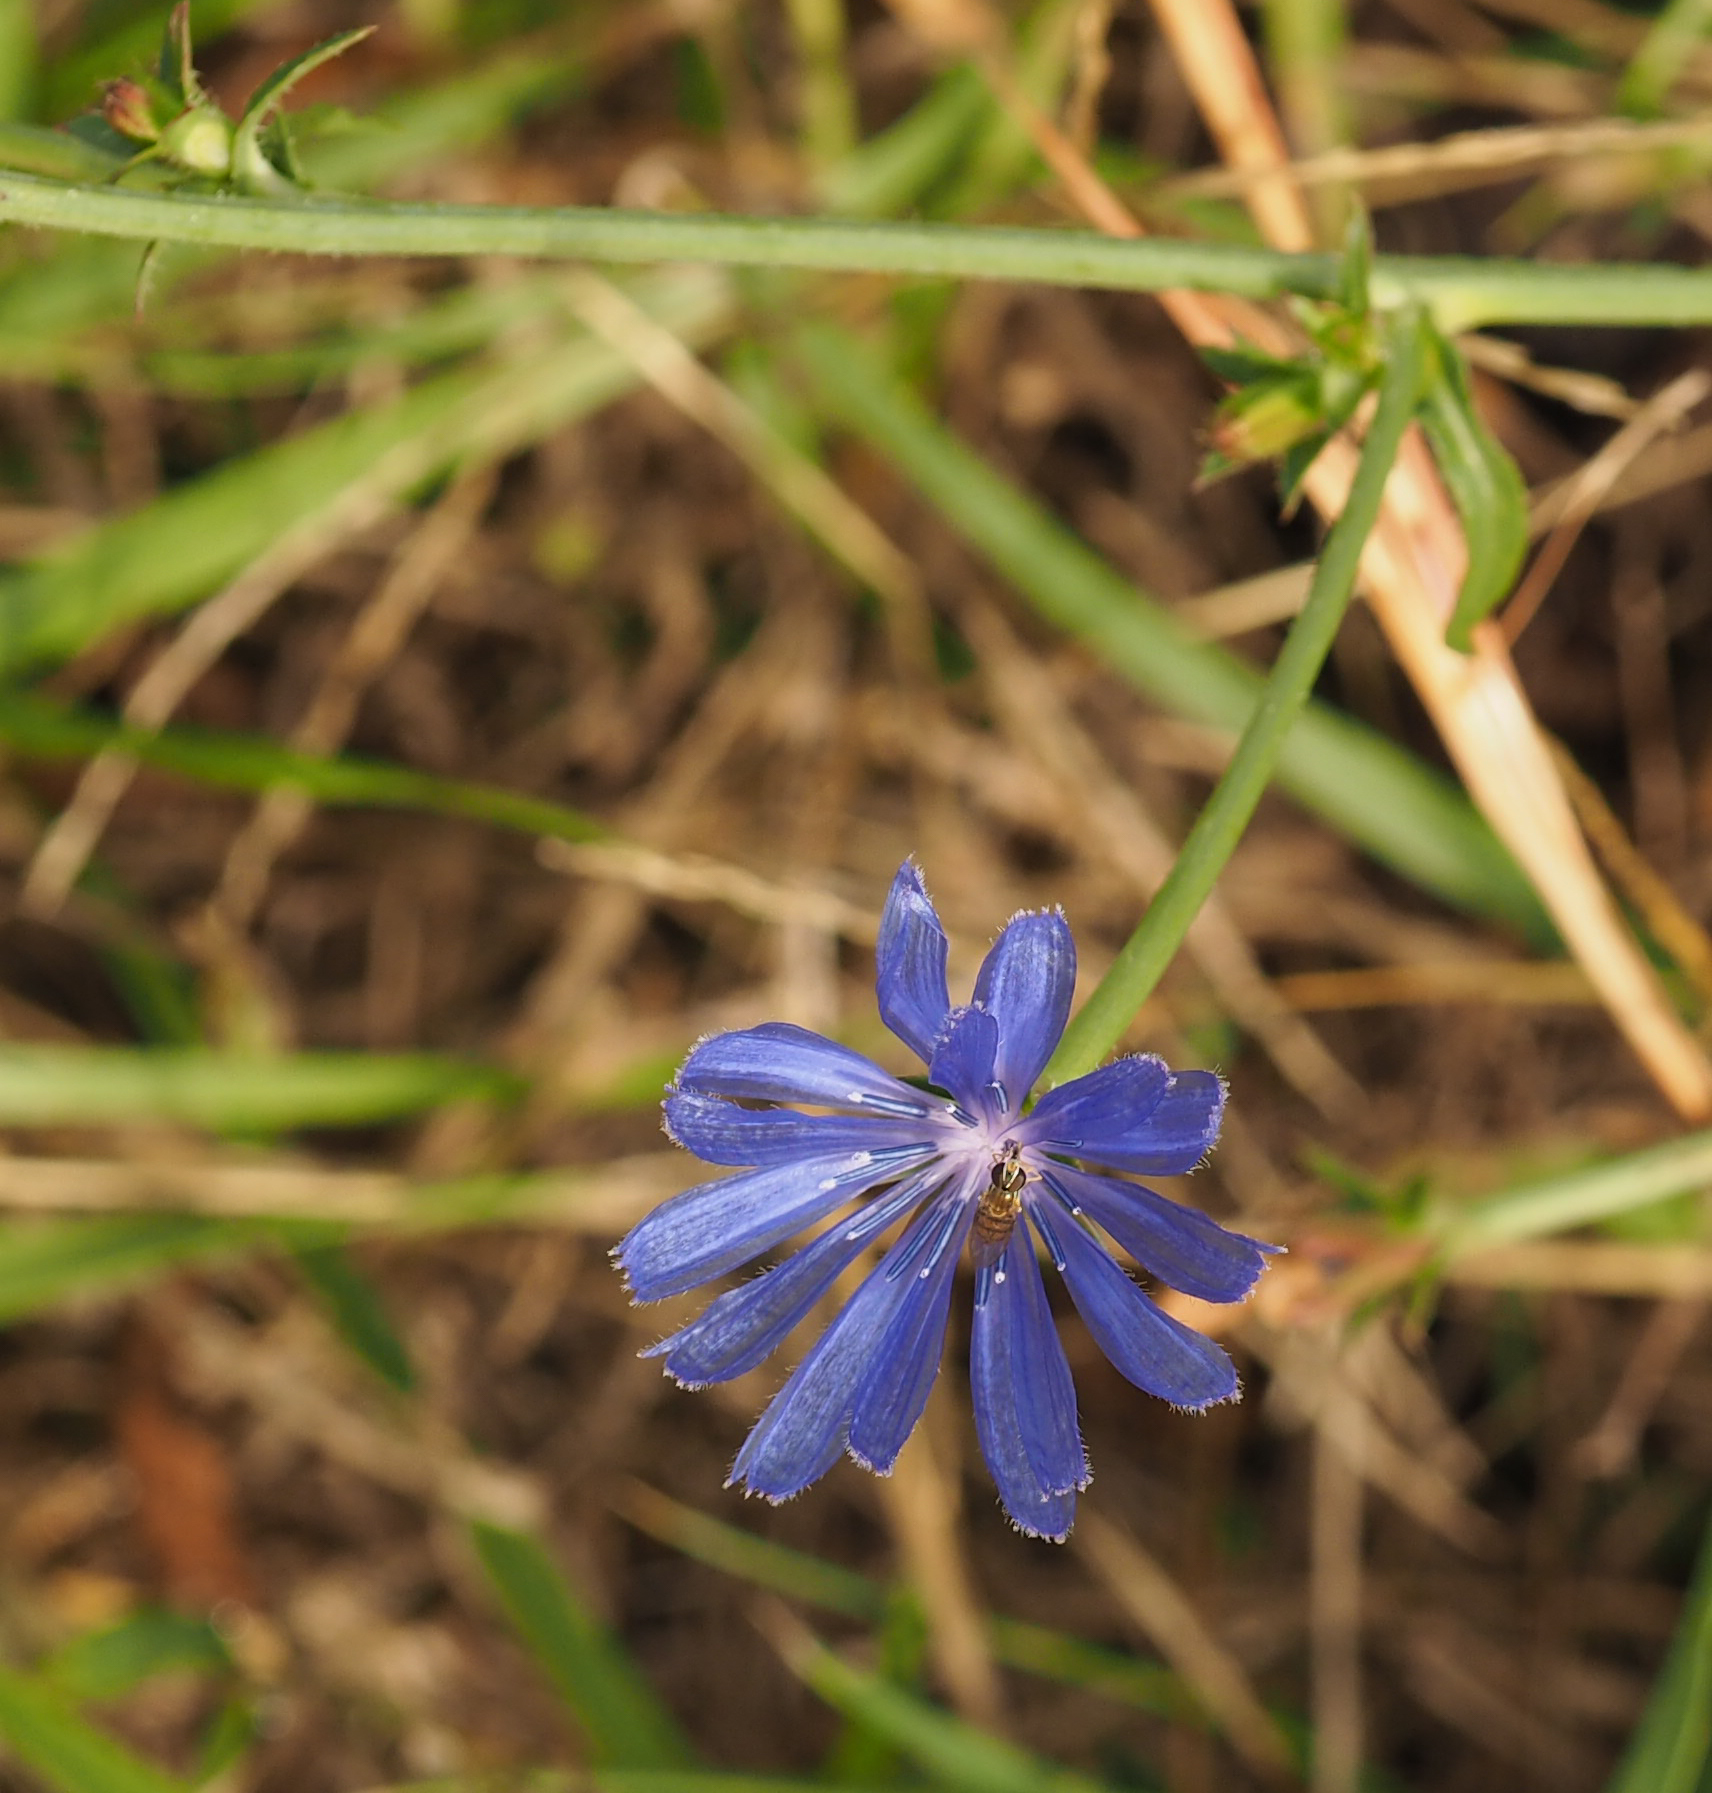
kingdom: Plantae
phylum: Tracheophyta
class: Magnoliopsida
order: Asterales
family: Asteraceae
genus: Cichorium
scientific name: Cichorium intybus
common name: Chicory
